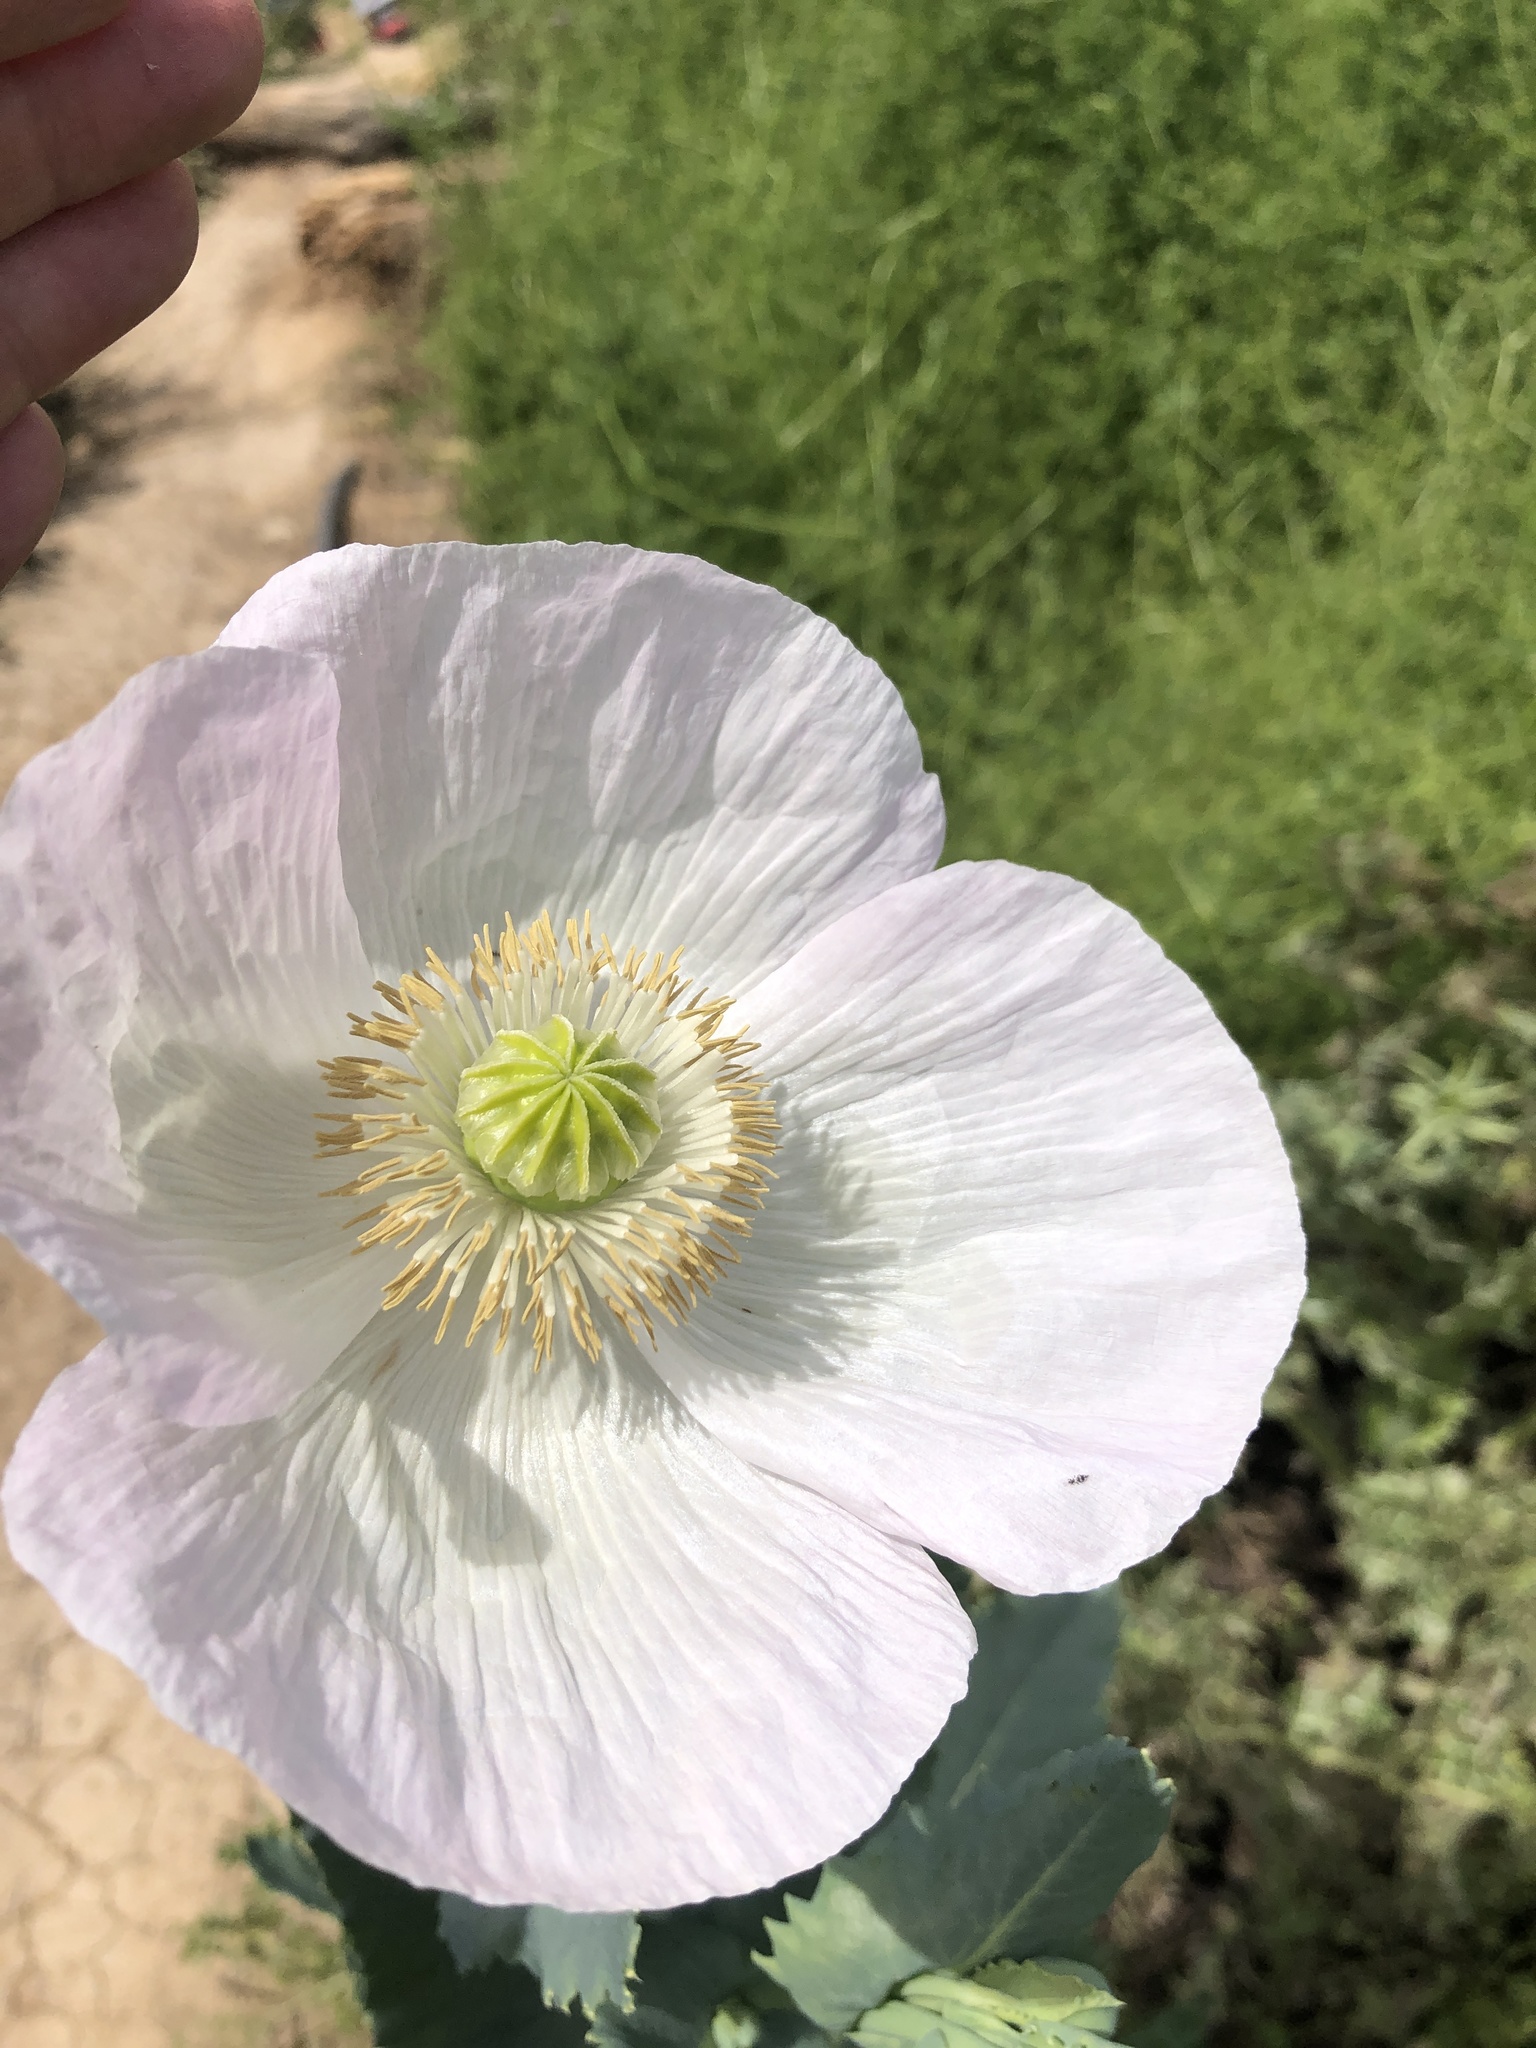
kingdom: Plantae
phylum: Tracheophyta
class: Magnoliopsida
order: Ranunculales
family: Papaveraceae
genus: Papaver
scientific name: Papaver somniferum
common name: Opium poppy
